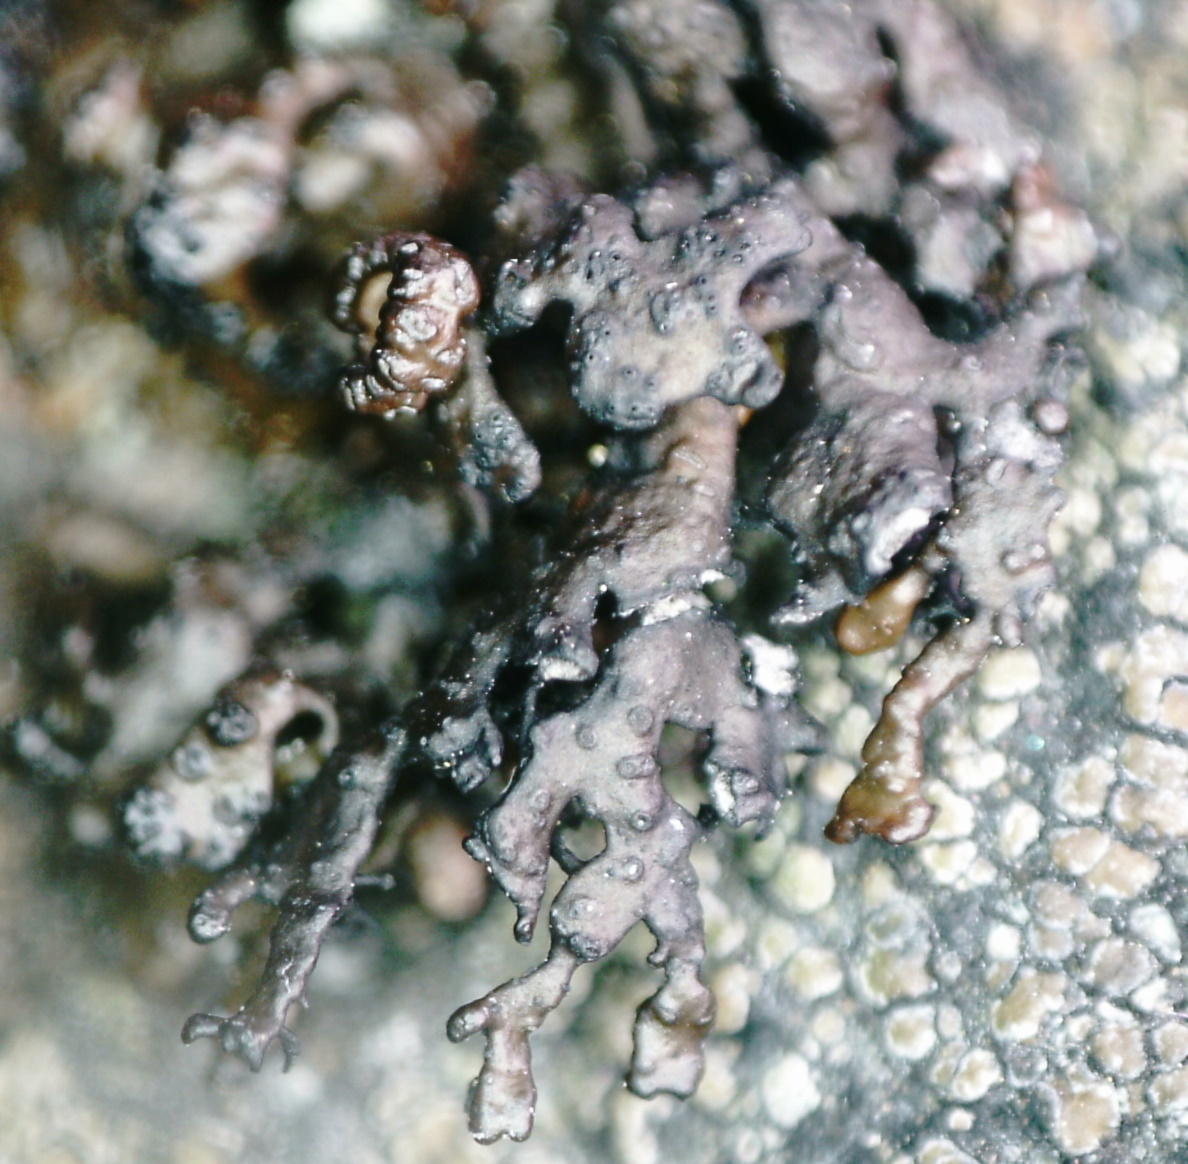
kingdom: Fungi
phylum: Ascomycota
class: Lecanoromycetes
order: Lecanorales
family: Parmeliaceae
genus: Melanelia
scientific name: Melanelia stygia
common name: Alpine camouflage lichen
